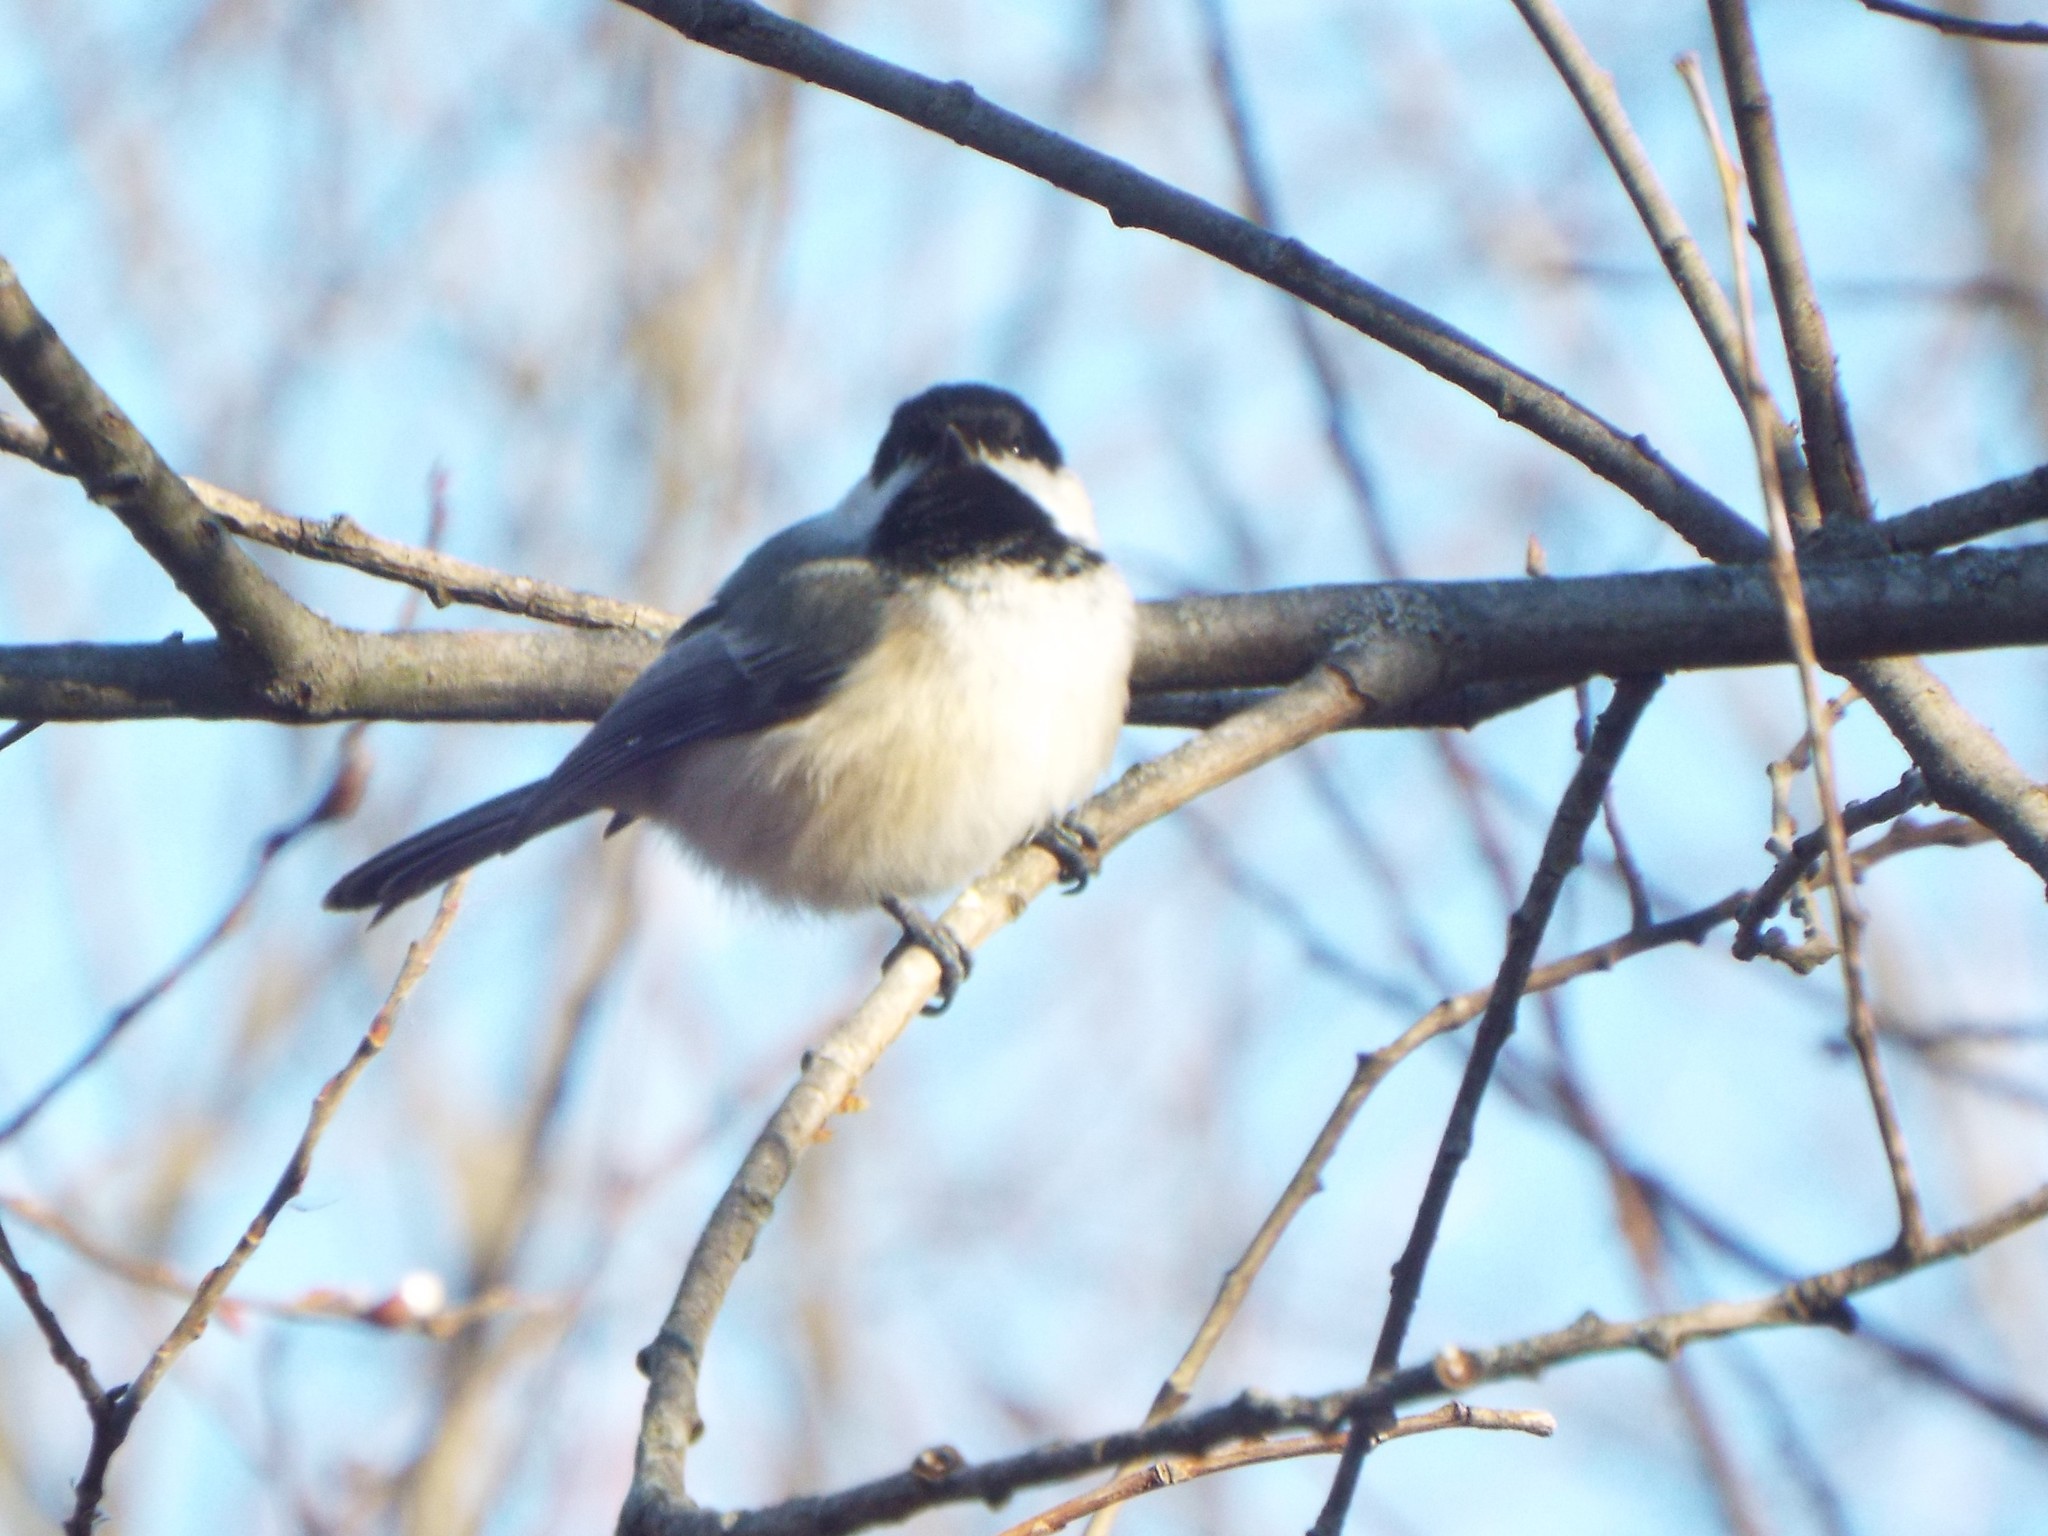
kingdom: Animalia
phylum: Chordata
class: Aves
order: Passeriformes
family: Paridae
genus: Poecile
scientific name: Poecile atricapillus
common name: Black-capped chickadee
